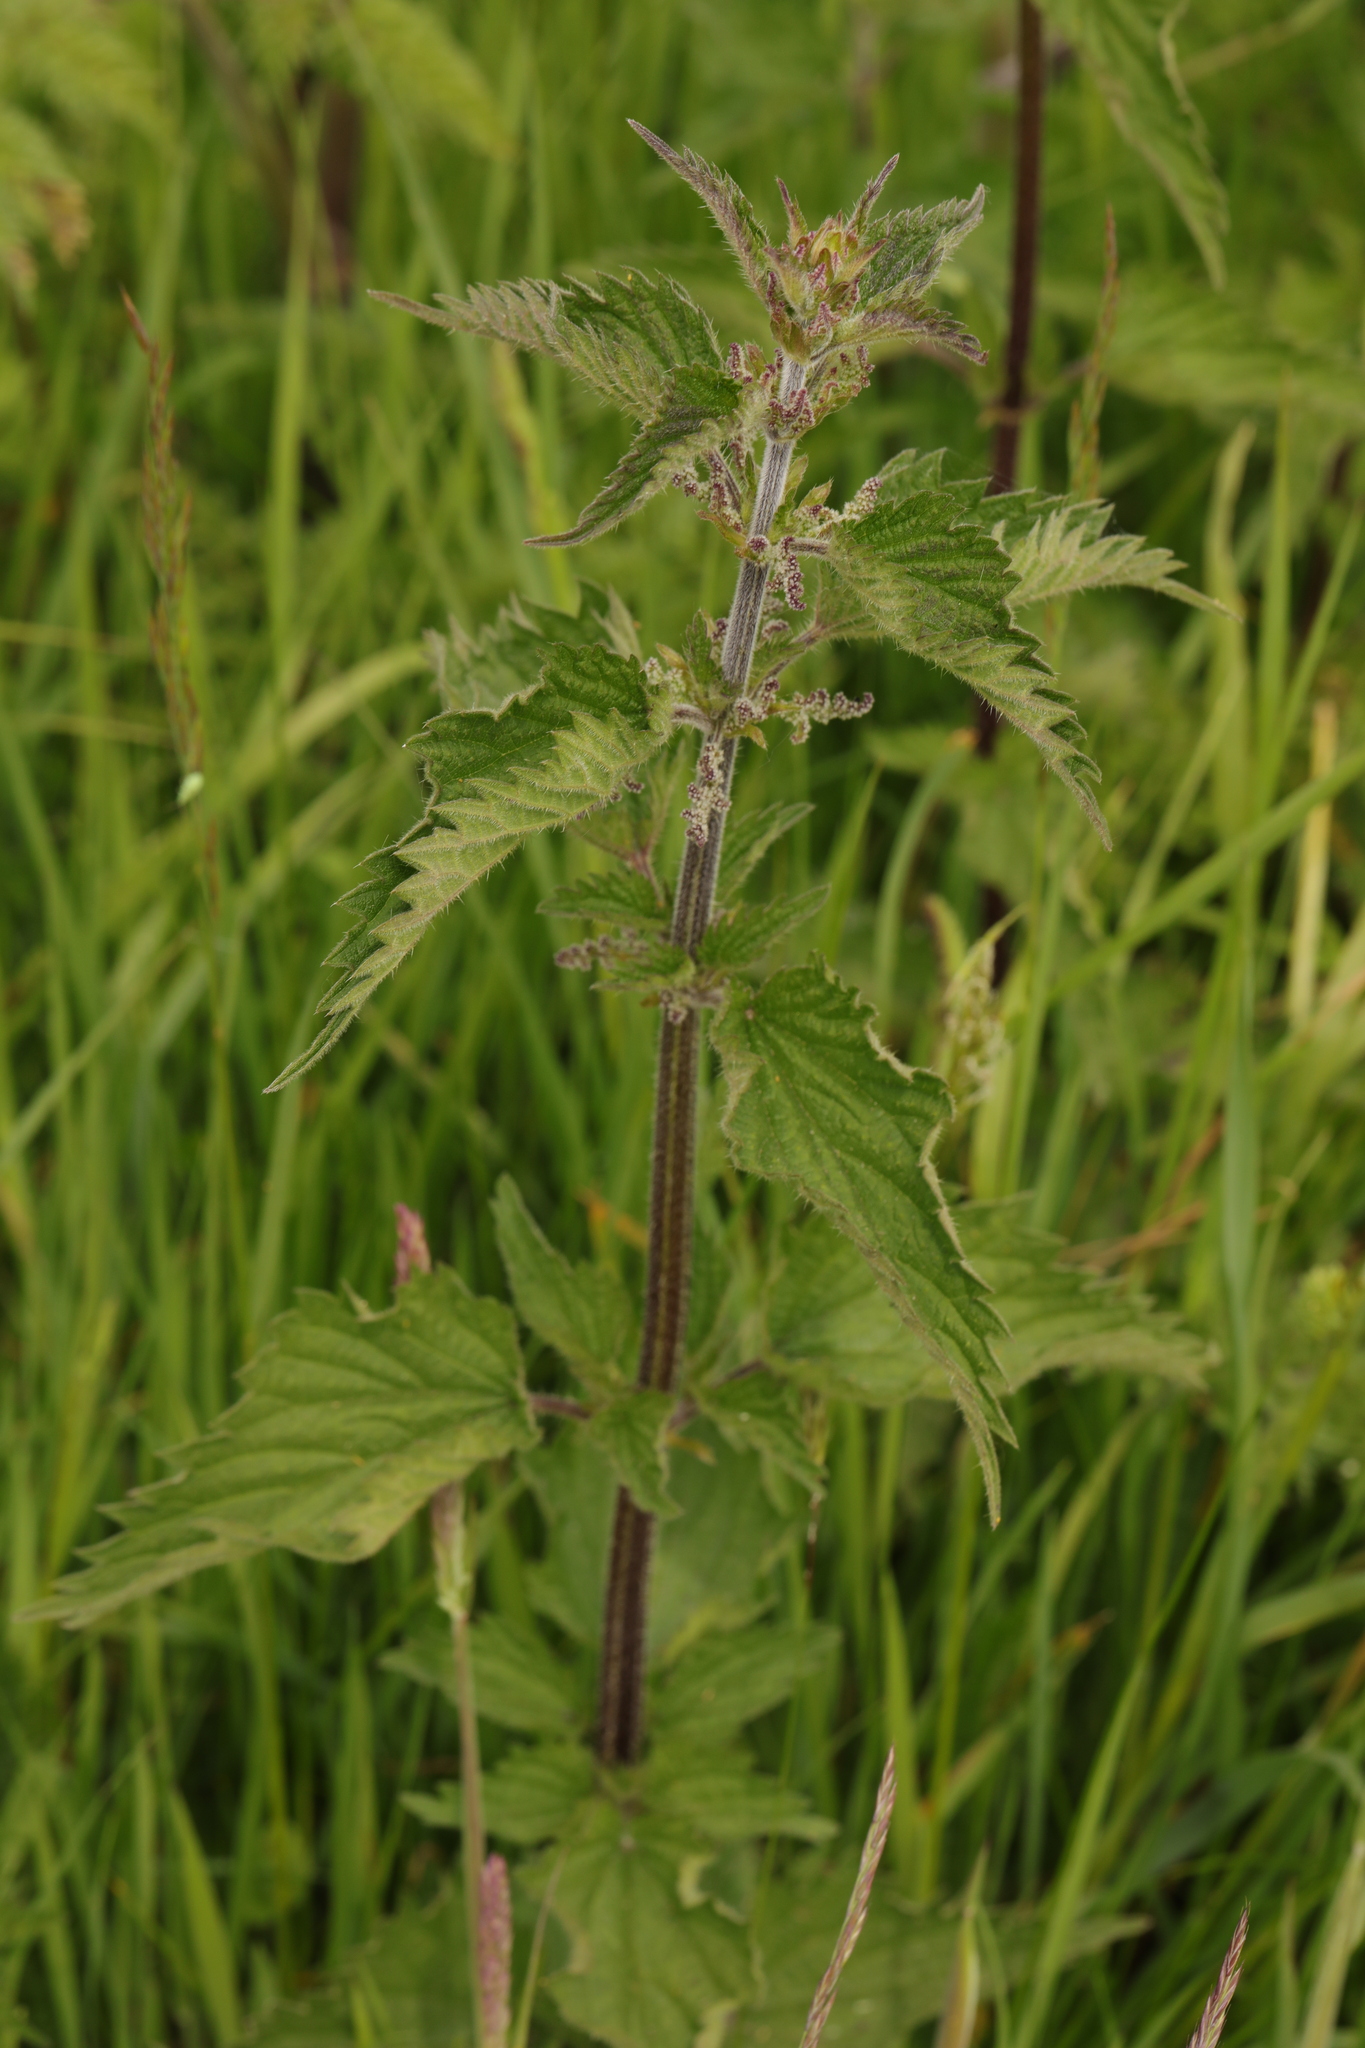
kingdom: Plantae
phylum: Tracheophyta
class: Magnoliopsida
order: Rosales
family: Urticaceae
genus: Urtica
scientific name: Urtica dioica
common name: Common nettle
